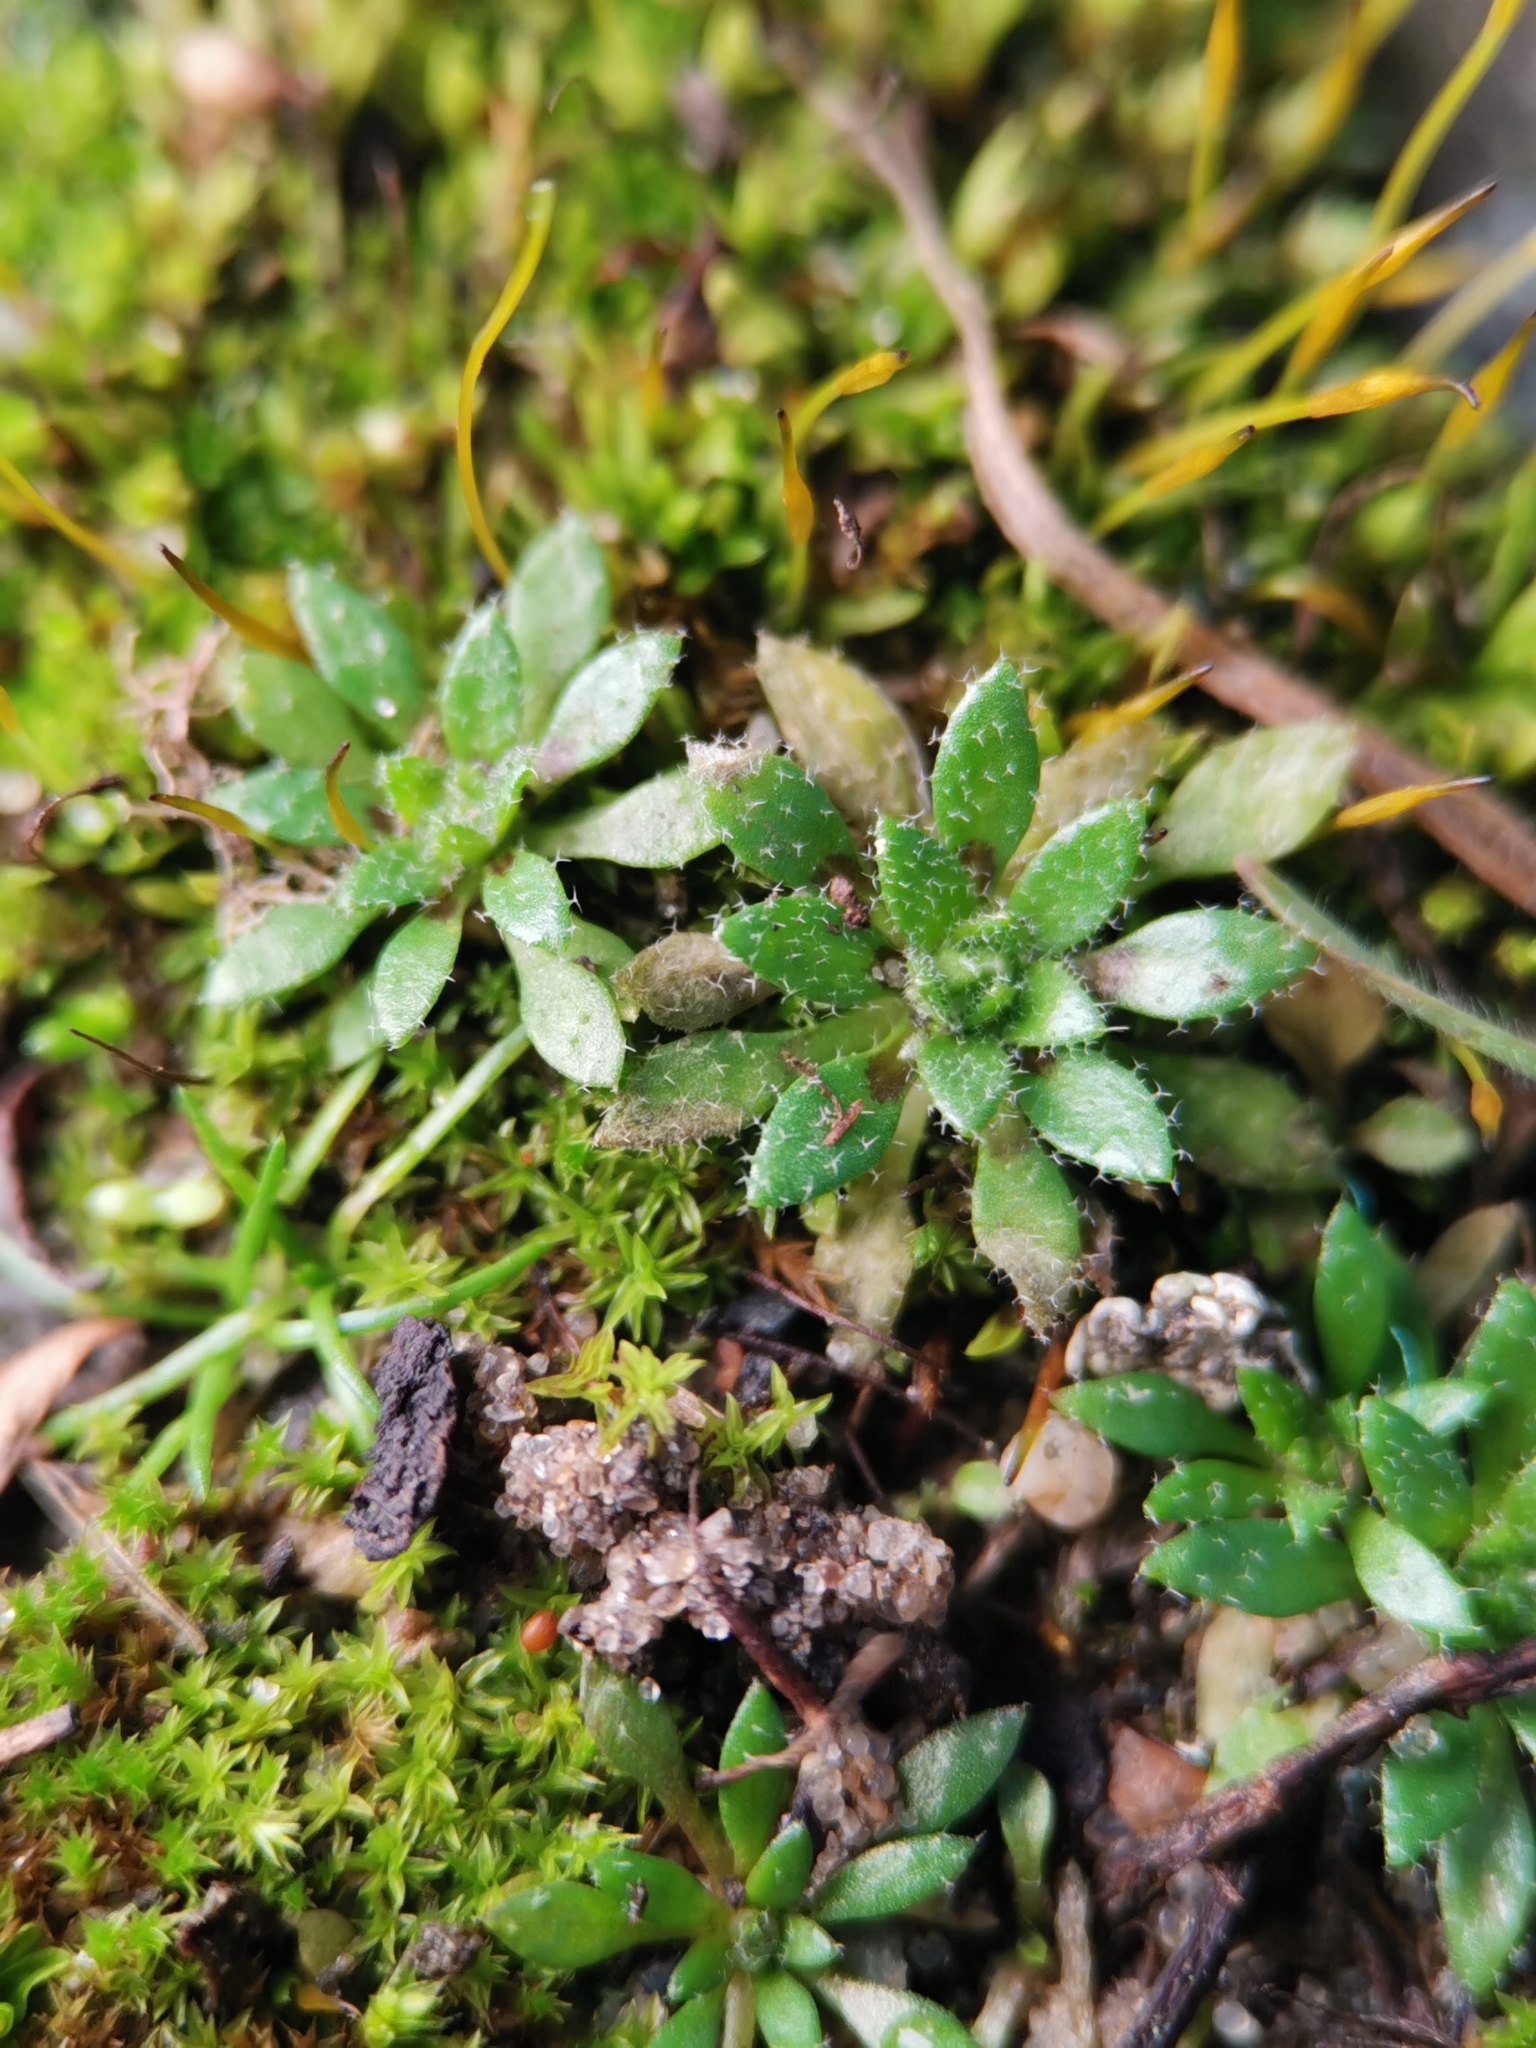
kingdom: Plantae
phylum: Tracheophyta
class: Magnoliopsida
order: Brassicales
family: Brassicaceae
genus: Draba
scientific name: Draba verna
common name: Spring draba
